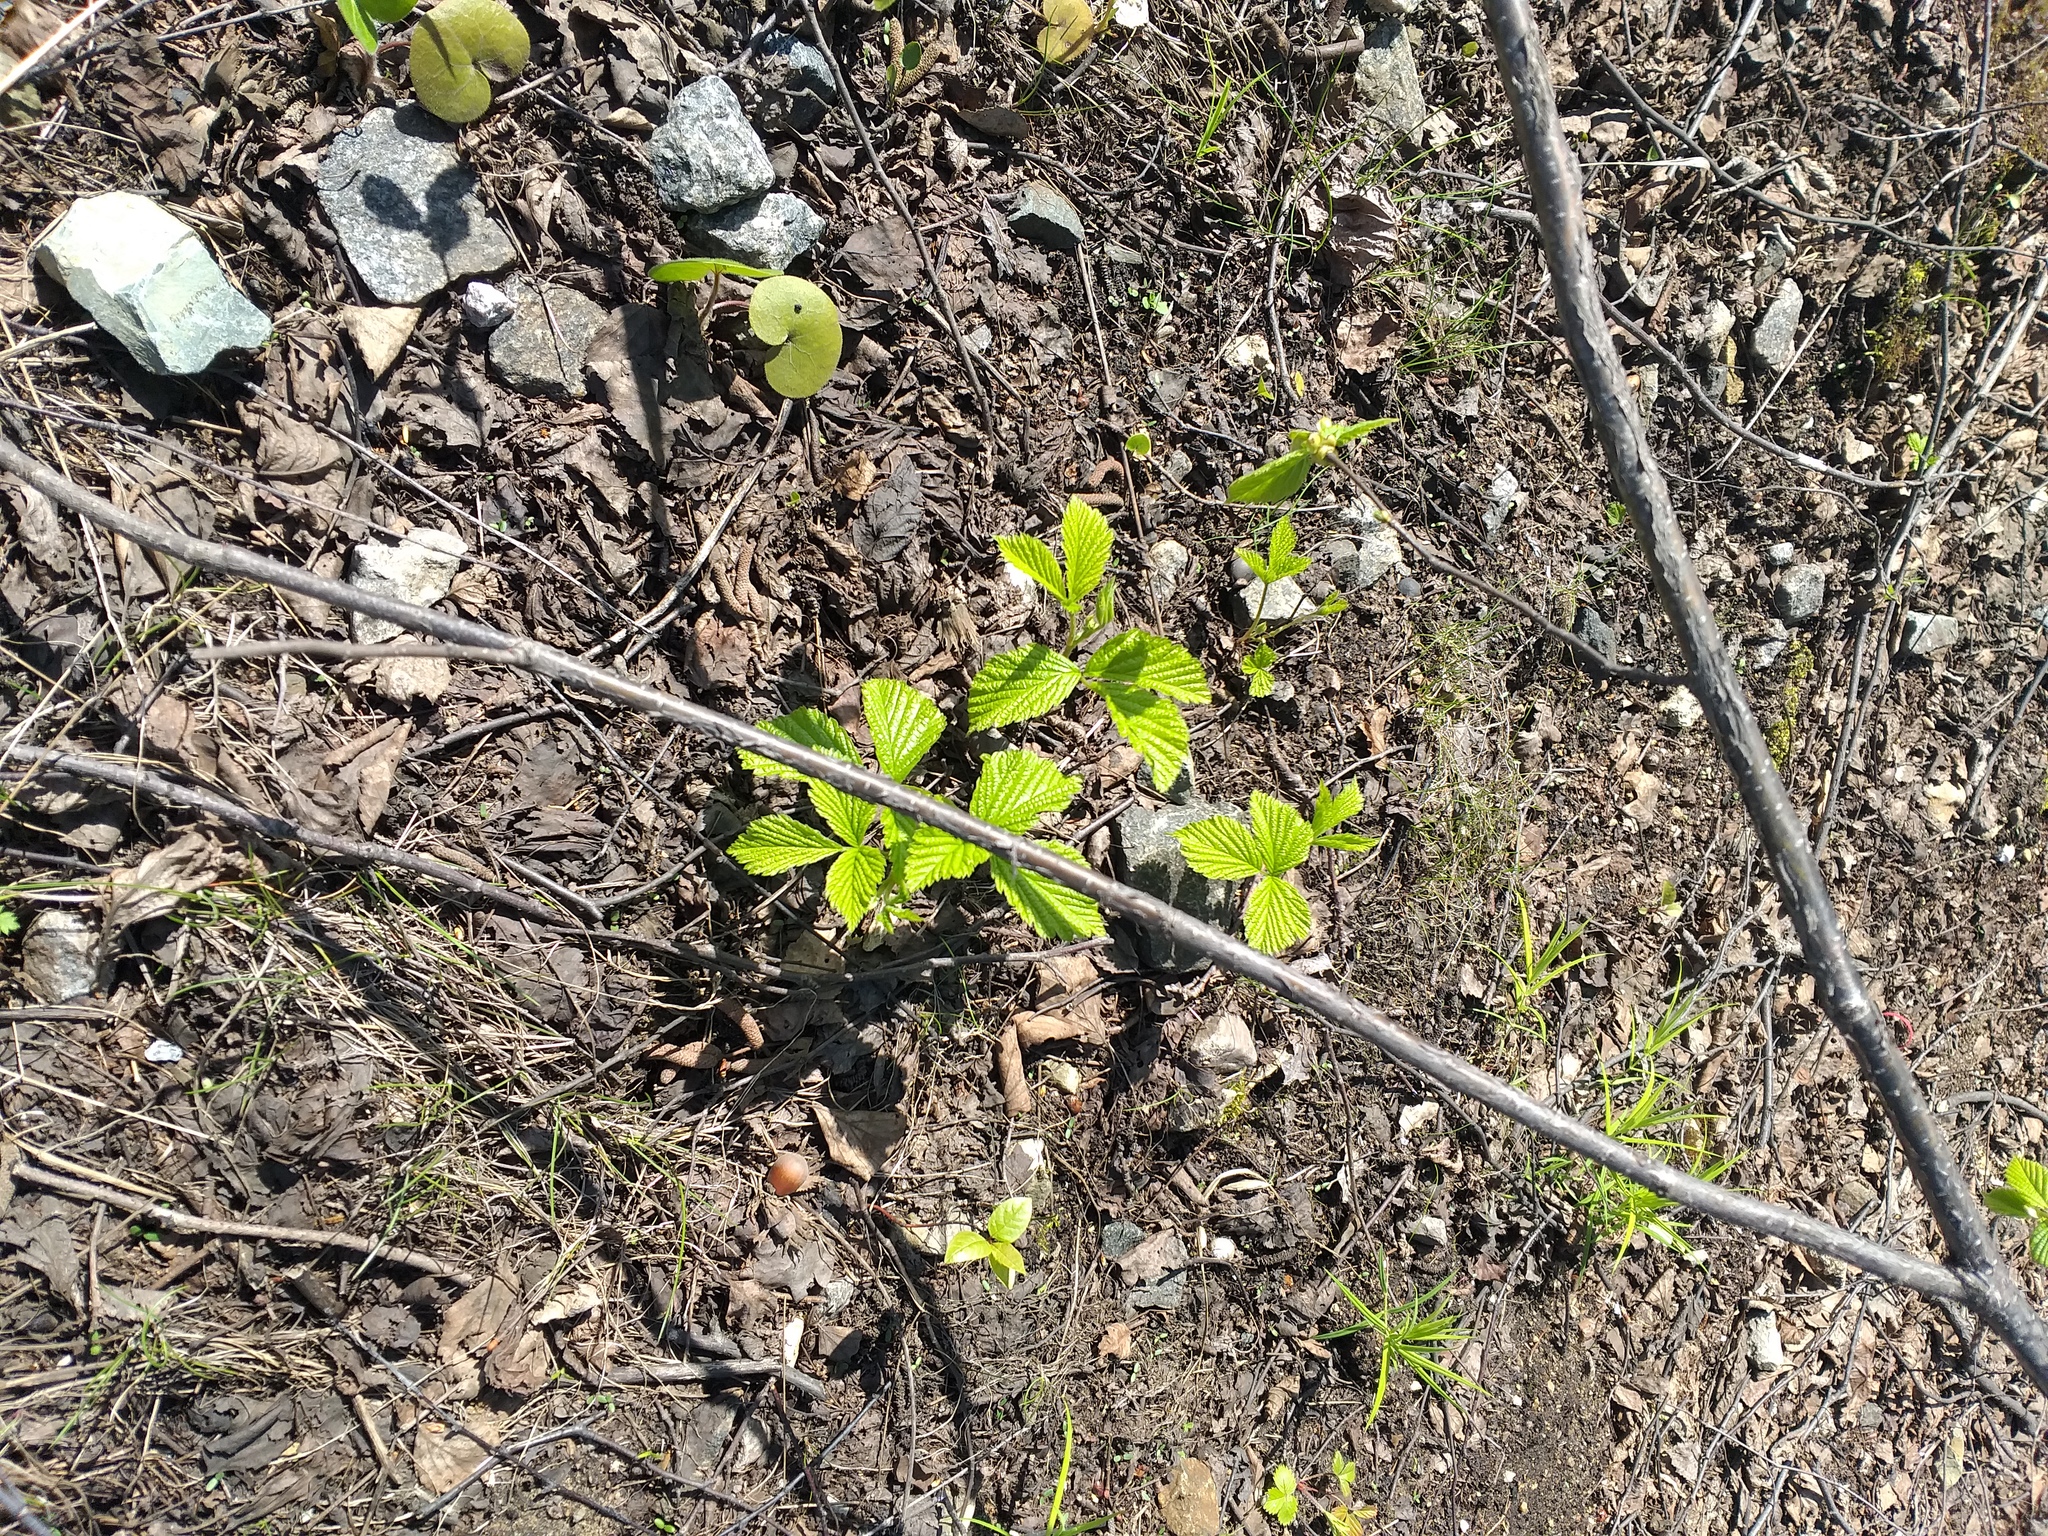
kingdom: Plantae
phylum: Tracheophyta
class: Magnoliopsida
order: Rosales
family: Rosaceae
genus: Rubus
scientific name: Rubus saxatilis
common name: Stone bramble
